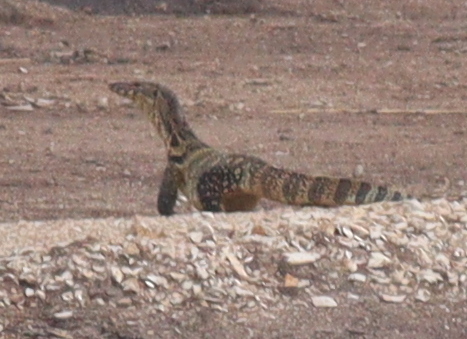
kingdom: Animalia
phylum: Chordata
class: Squamata
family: Varanidae
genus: Varanus
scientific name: Varanus salvator
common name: Common water monitor
